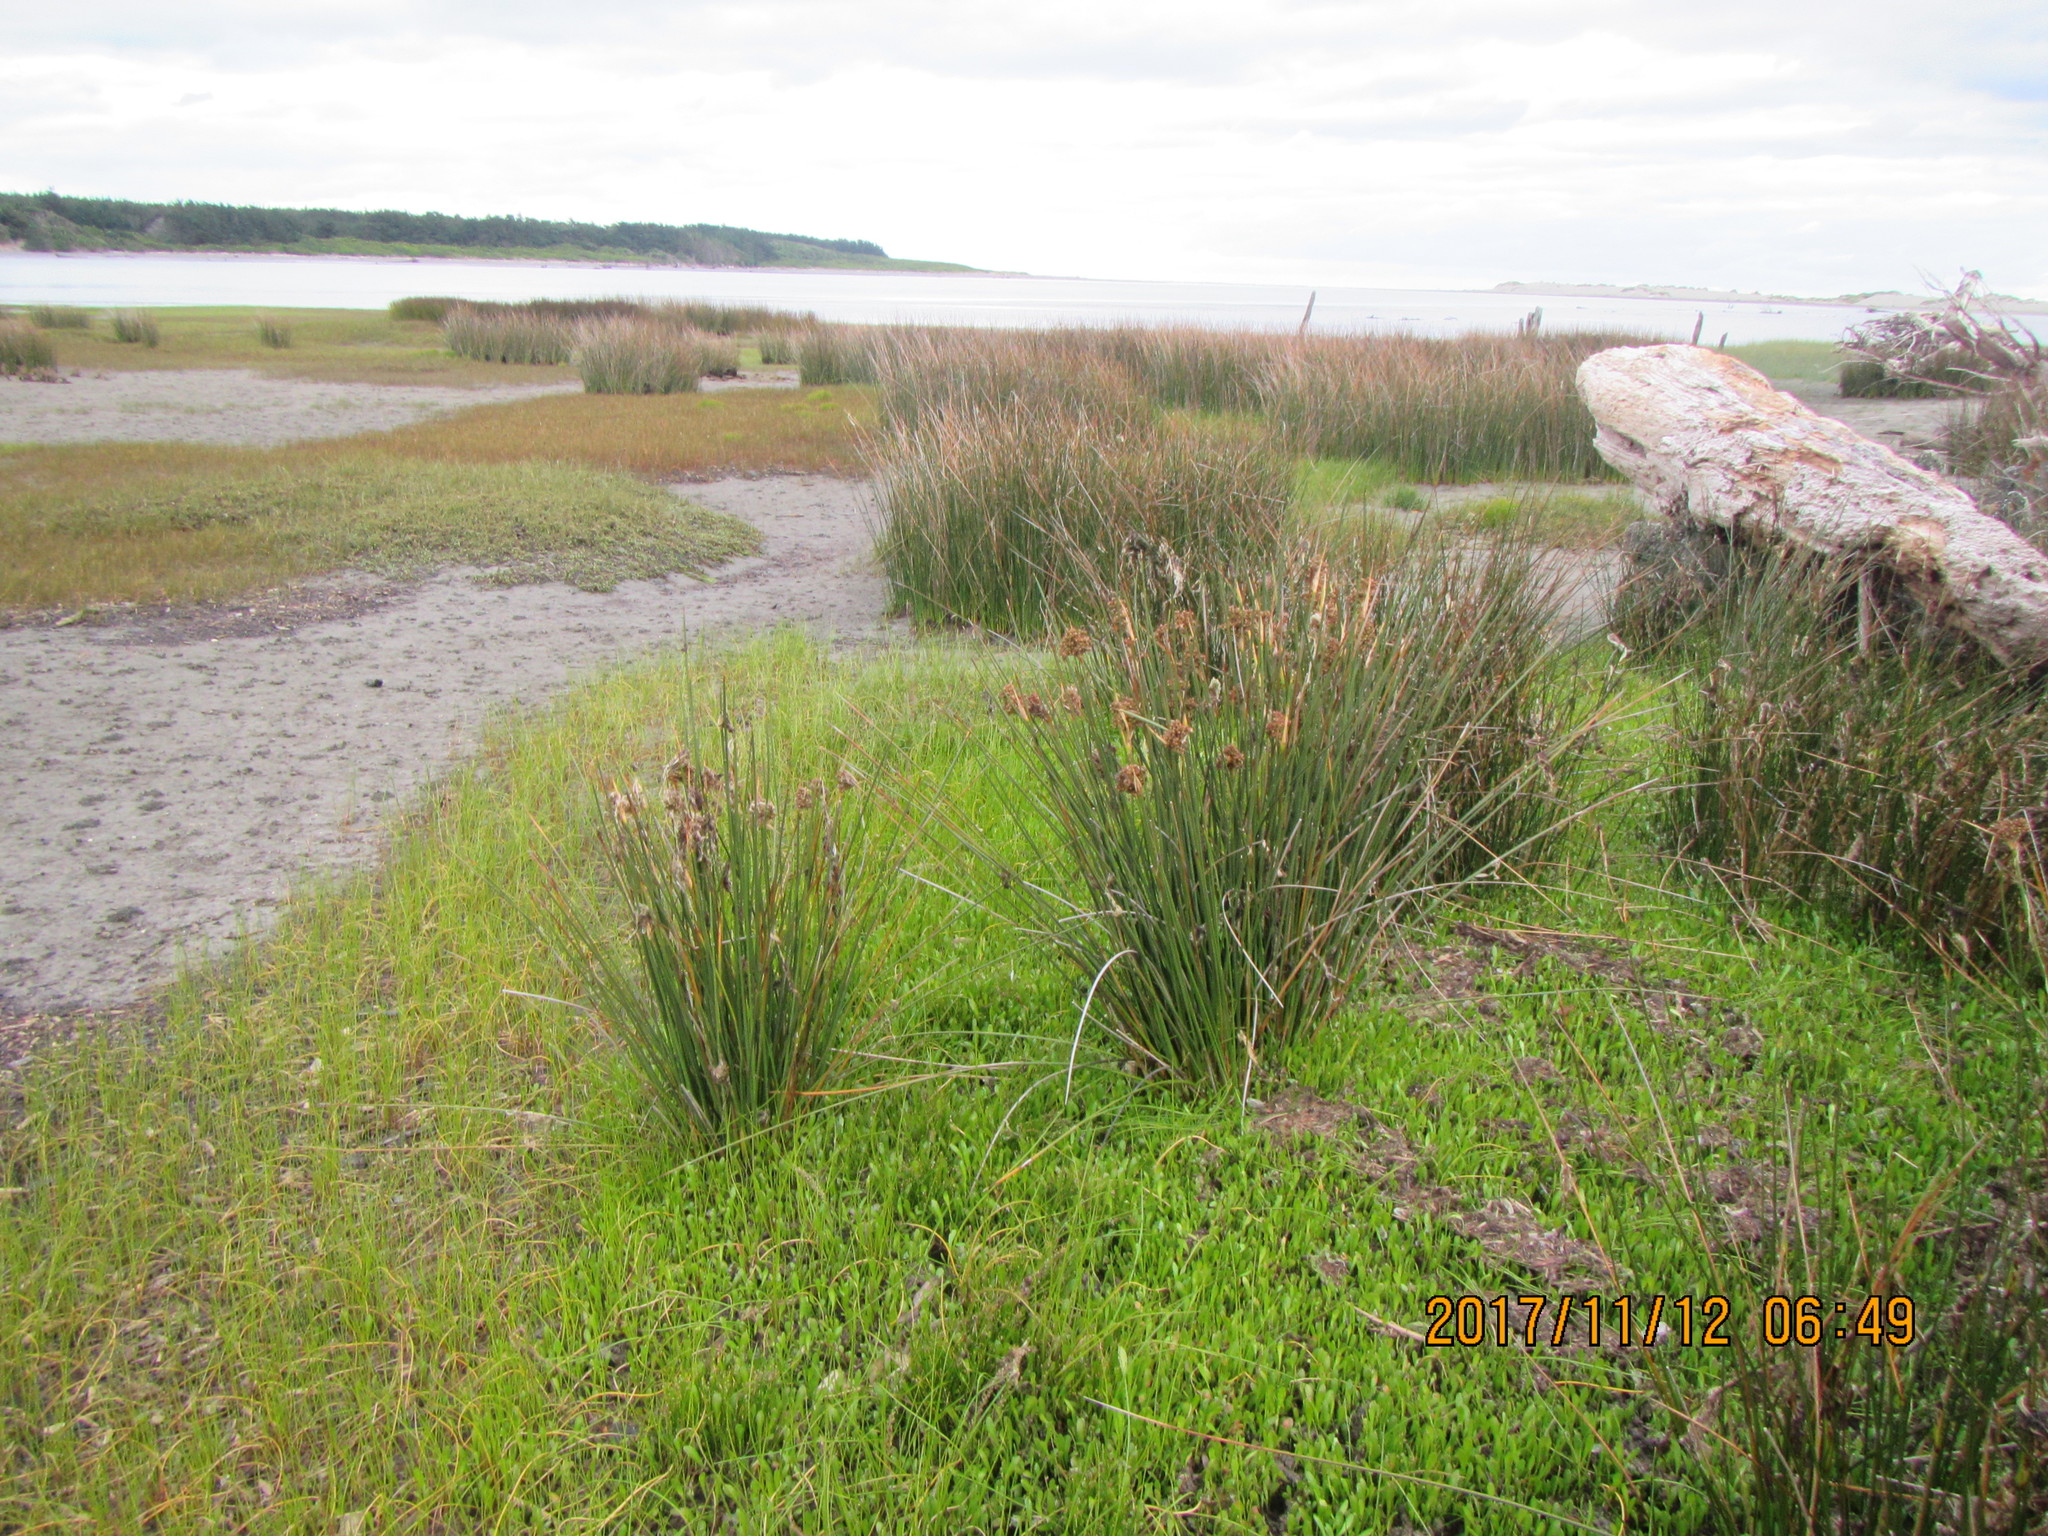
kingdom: Plantae
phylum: Tracheophyta
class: Liliopsida
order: Poales
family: Juncaceae
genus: Juncus
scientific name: Juncus acutus
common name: Sharp rush
